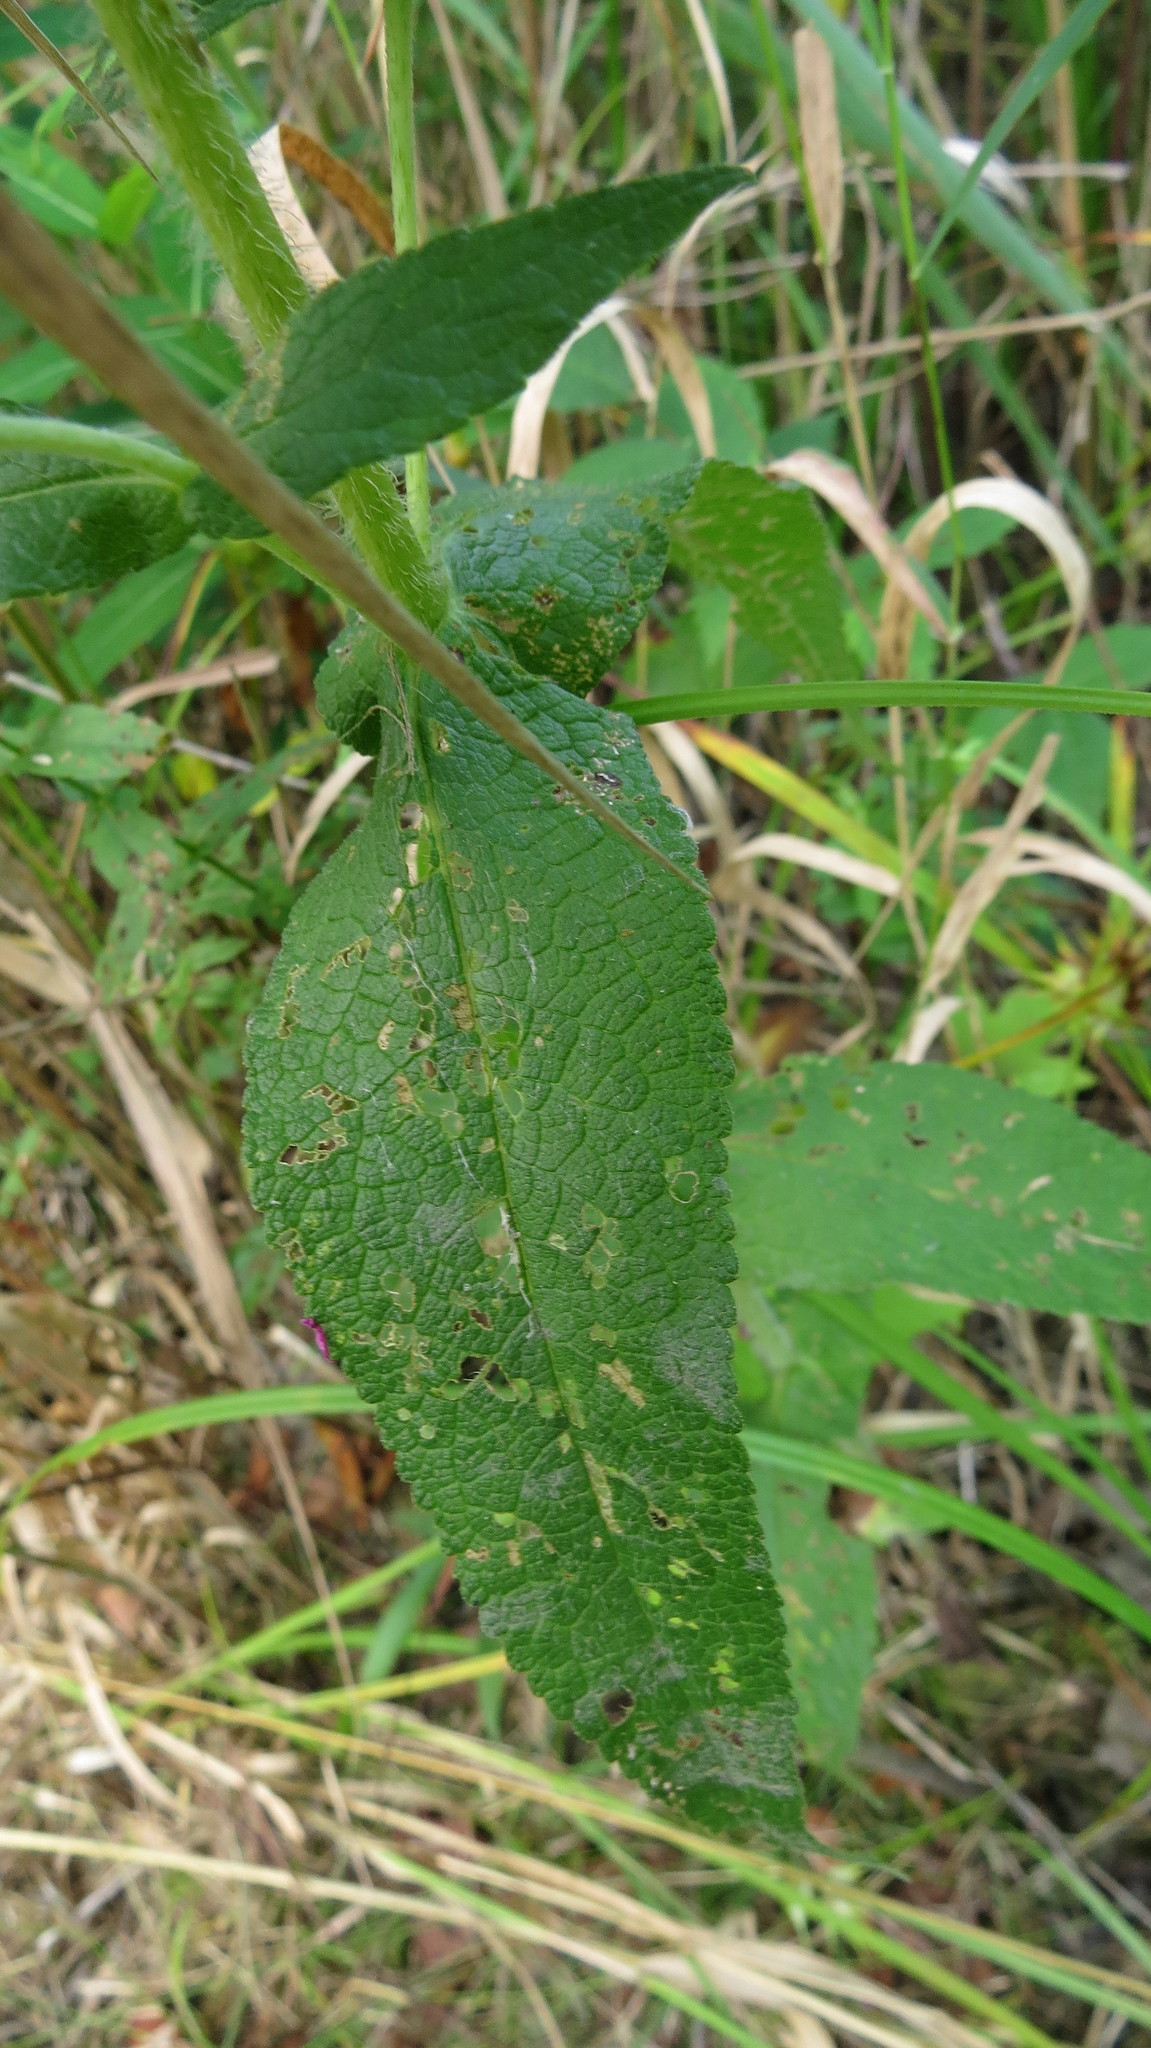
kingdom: Plantae
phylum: Tracheophyta
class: Magnoliopsida
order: Asterales
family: Asteraceae
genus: Eupatorium
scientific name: Eupatorium perfoliatum
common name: Boneset
